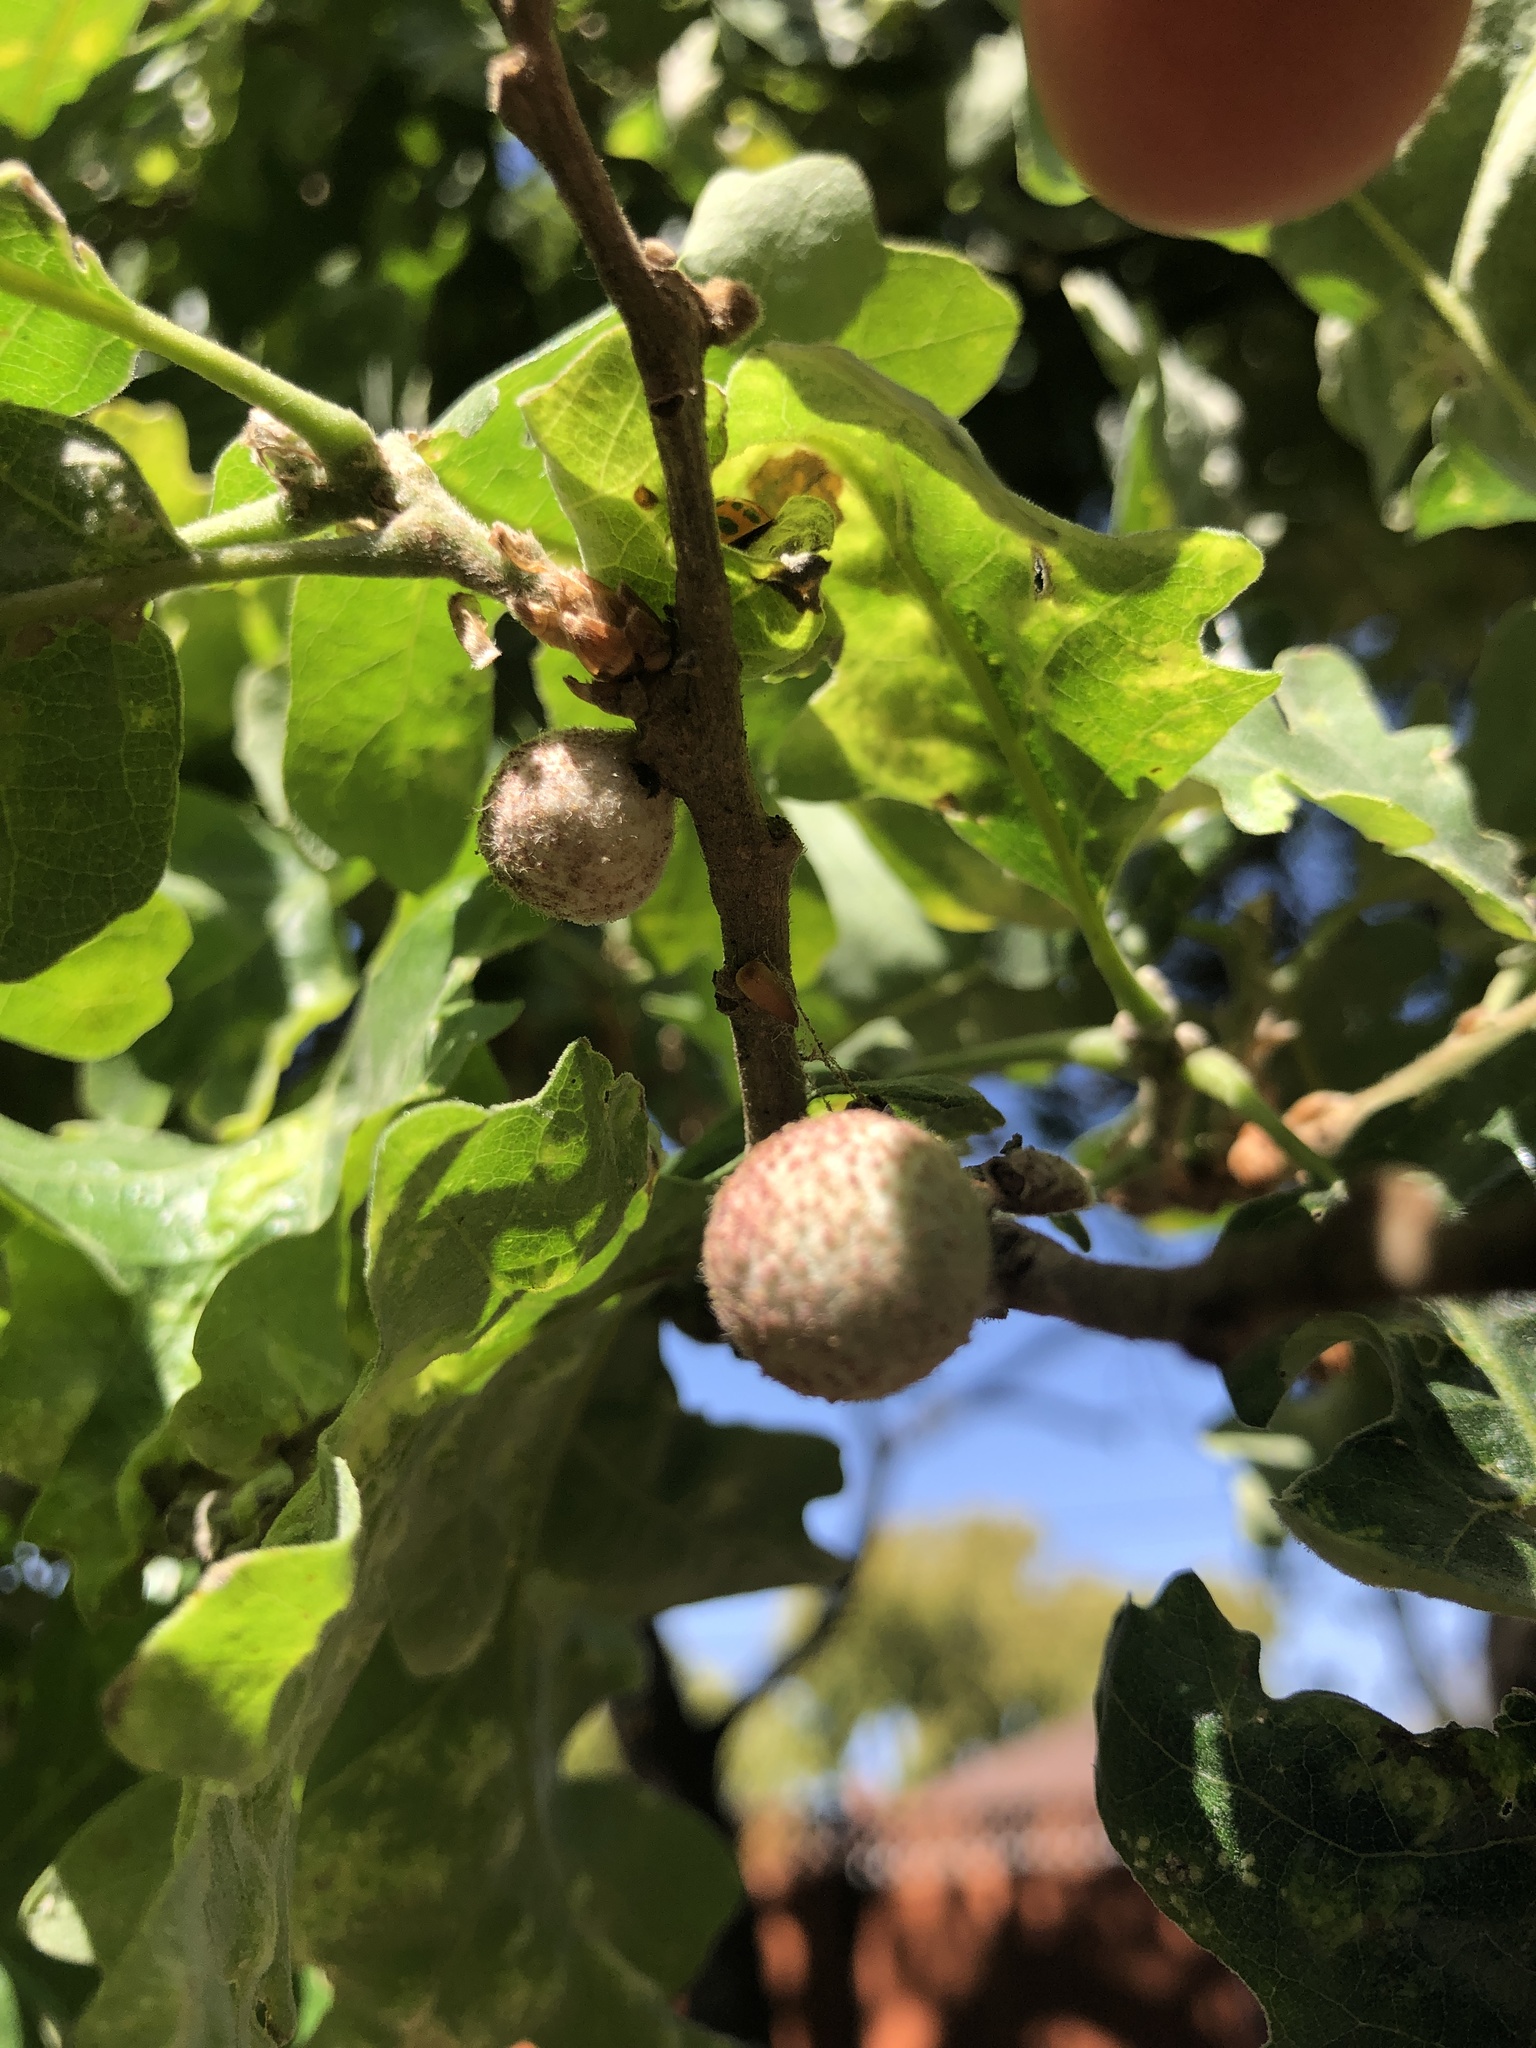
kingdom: Animalia
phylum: Arthropoda
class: Insecta
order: Hymenoptera
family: Cynipidae
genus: Burnettweldia
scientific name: Burnettweldia
